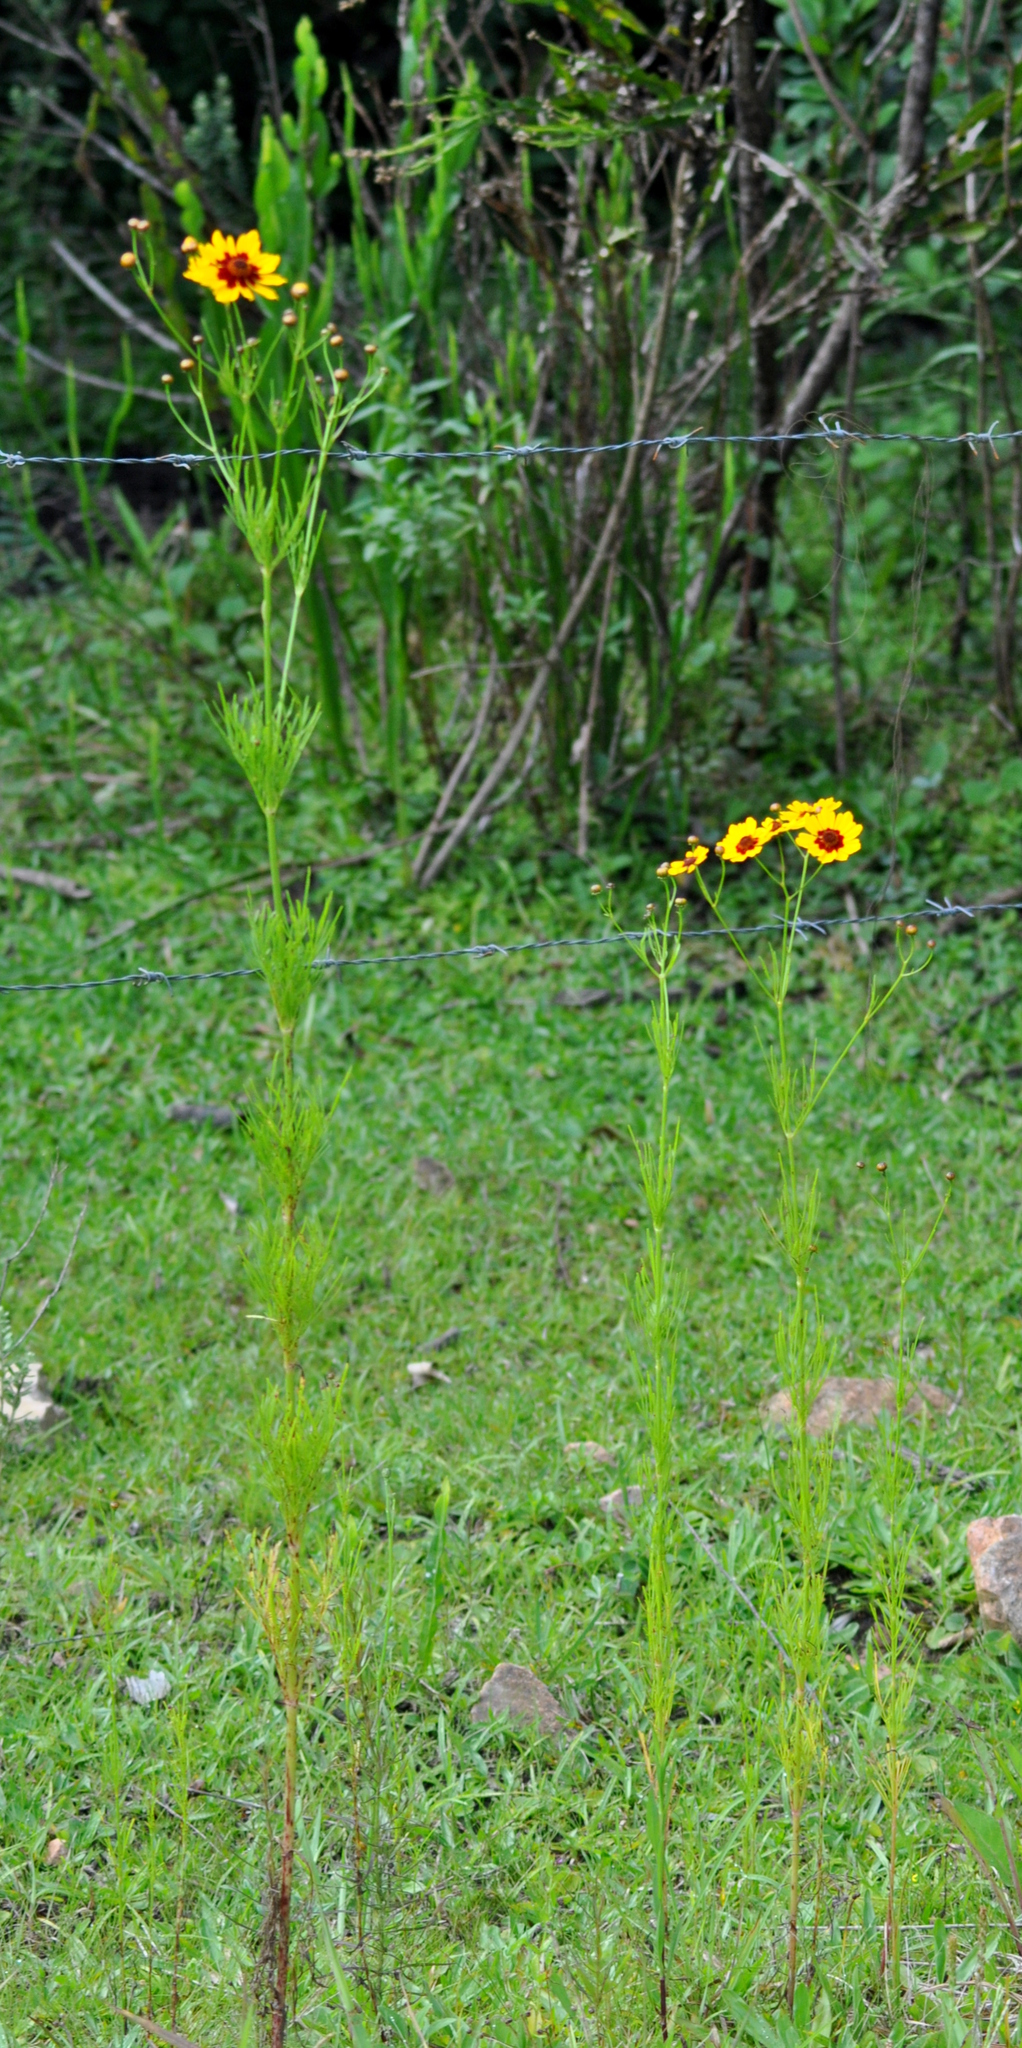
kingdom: Plantae
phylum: Tracheophyta
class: Magnoliopsida
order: Asterales
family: Asteraceae
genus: Coreopsis
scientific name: Coreopsis tinctoria
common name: Garden tickseed
